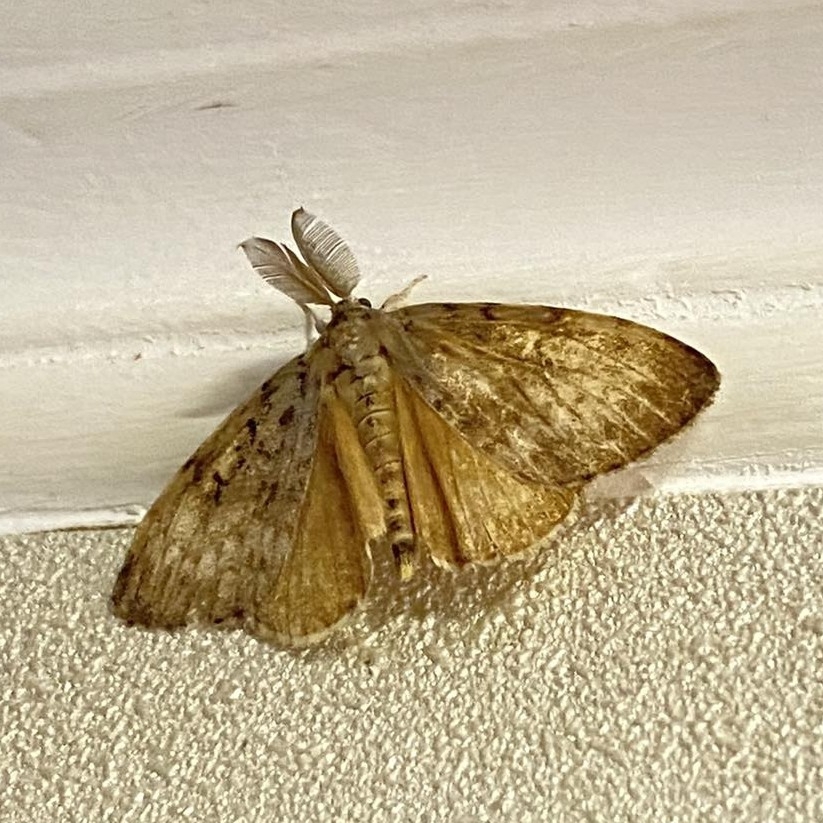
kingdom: Animalia
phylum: Arthropoda
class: Insecta
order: Lepidoptera
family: Erebidae
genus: Lymantria
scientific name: Lymantria dispar
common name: Gypsy moth
